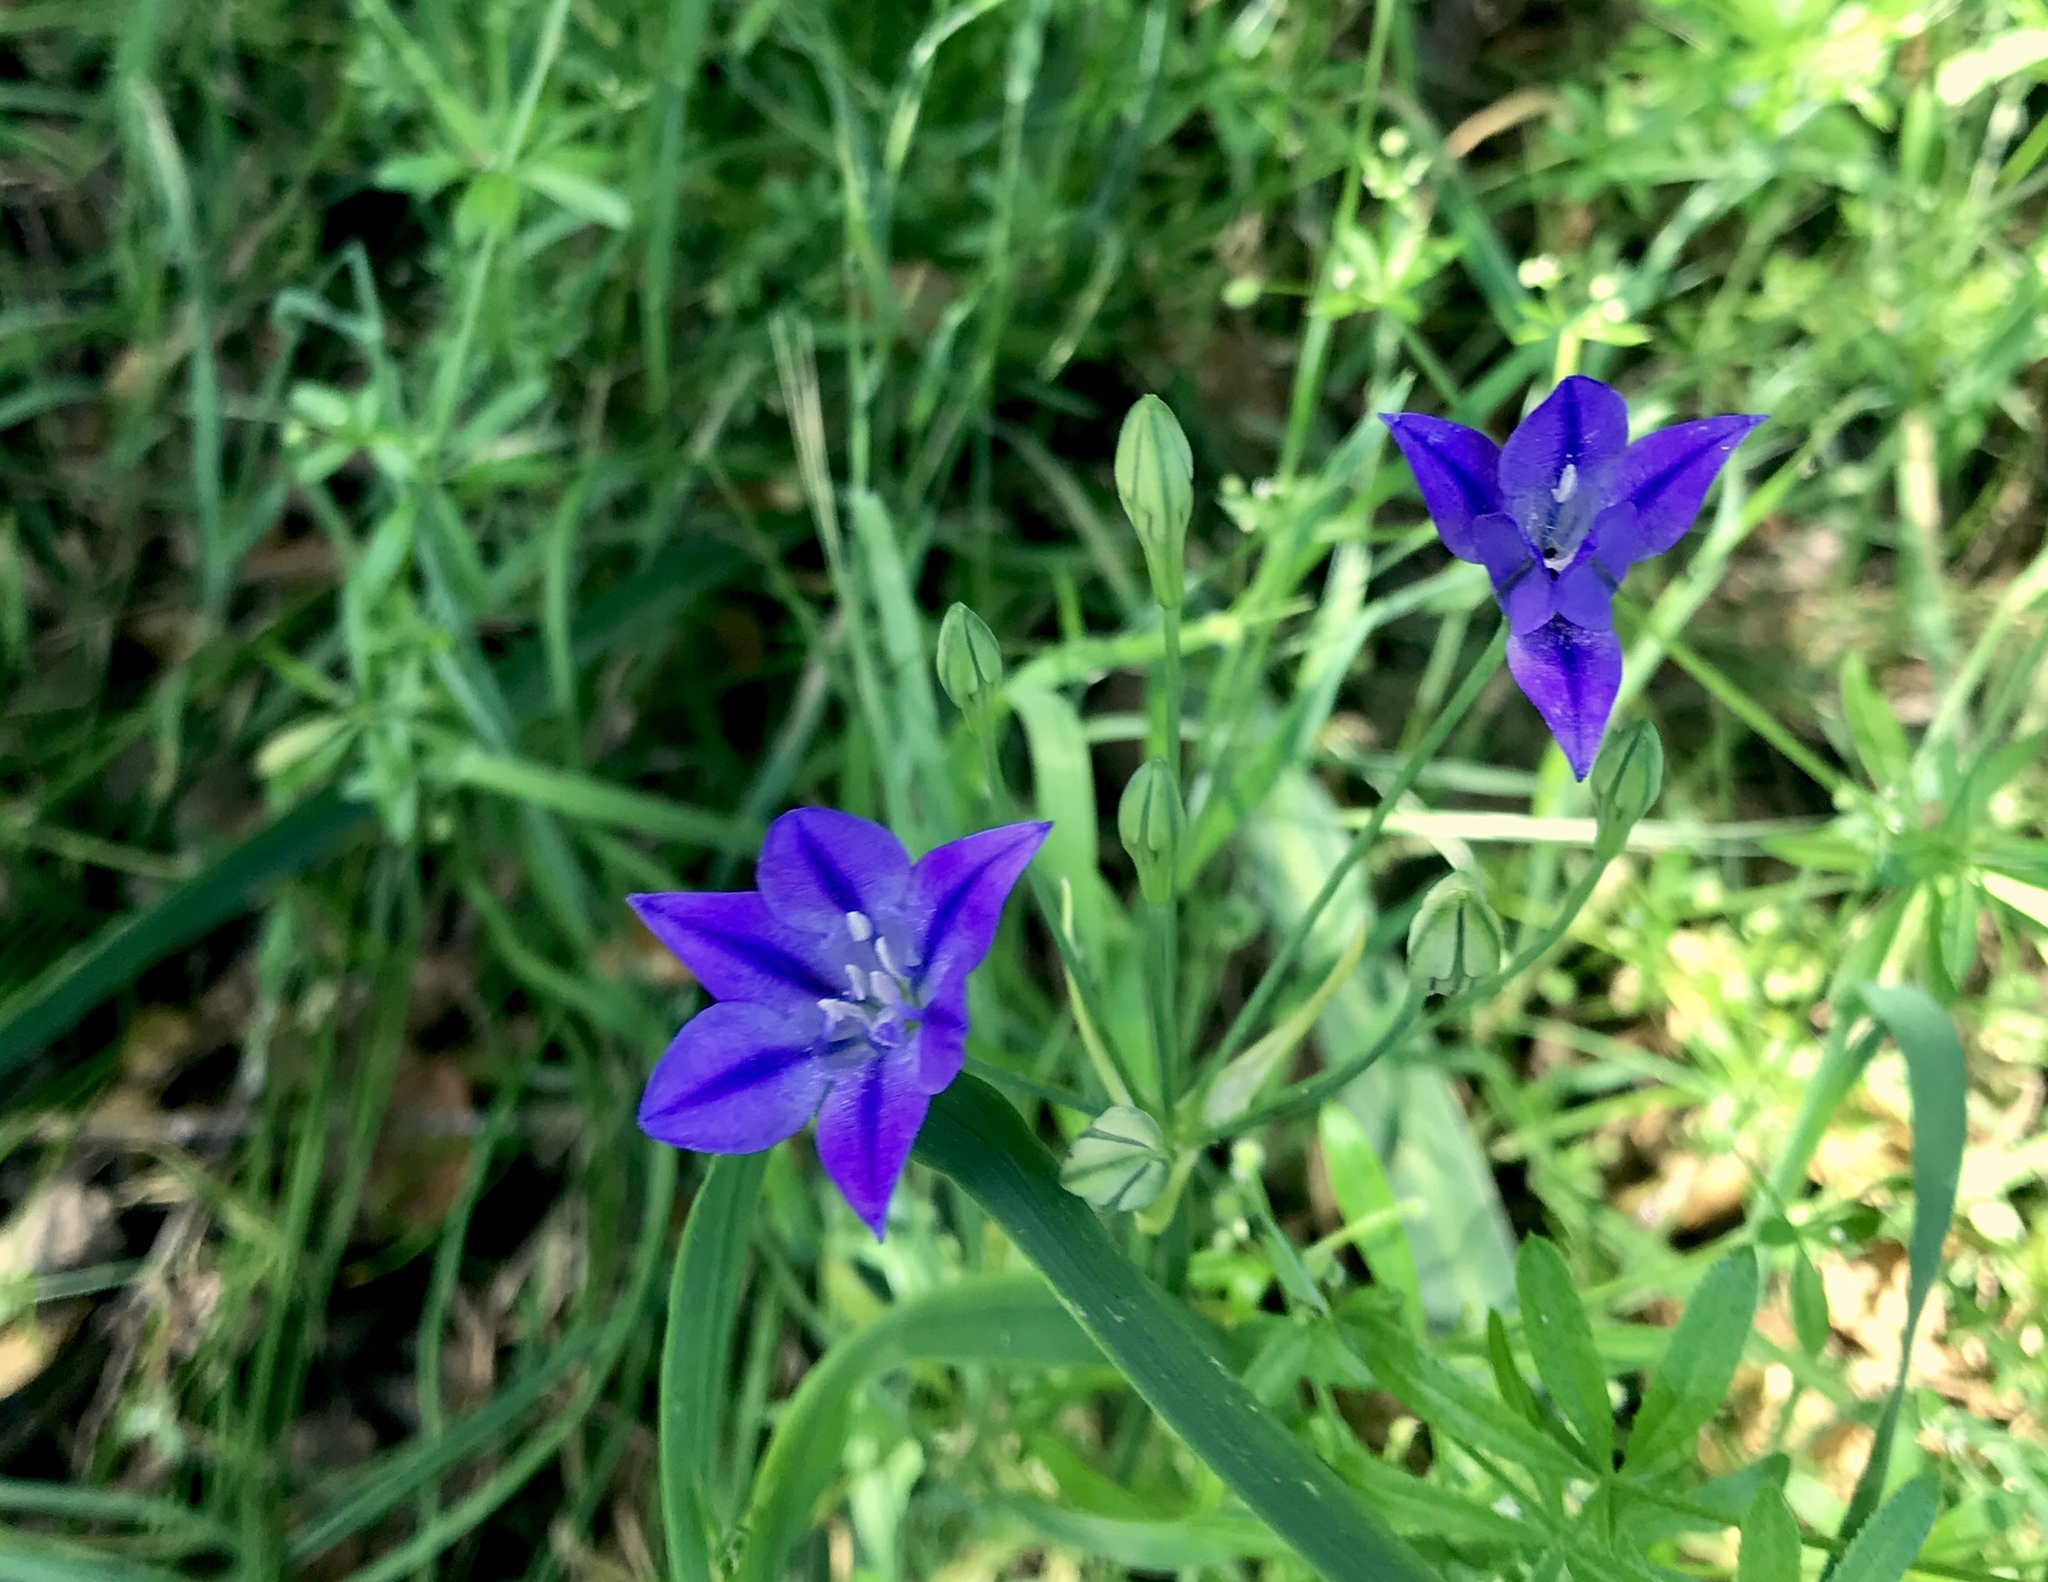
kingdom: Plantae
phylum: Tracheophyta
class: Liliopsida
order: Asparagales
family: Asparagaceae
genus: Triteleia
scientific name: Triteleia laxa
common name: Triplet-lily
